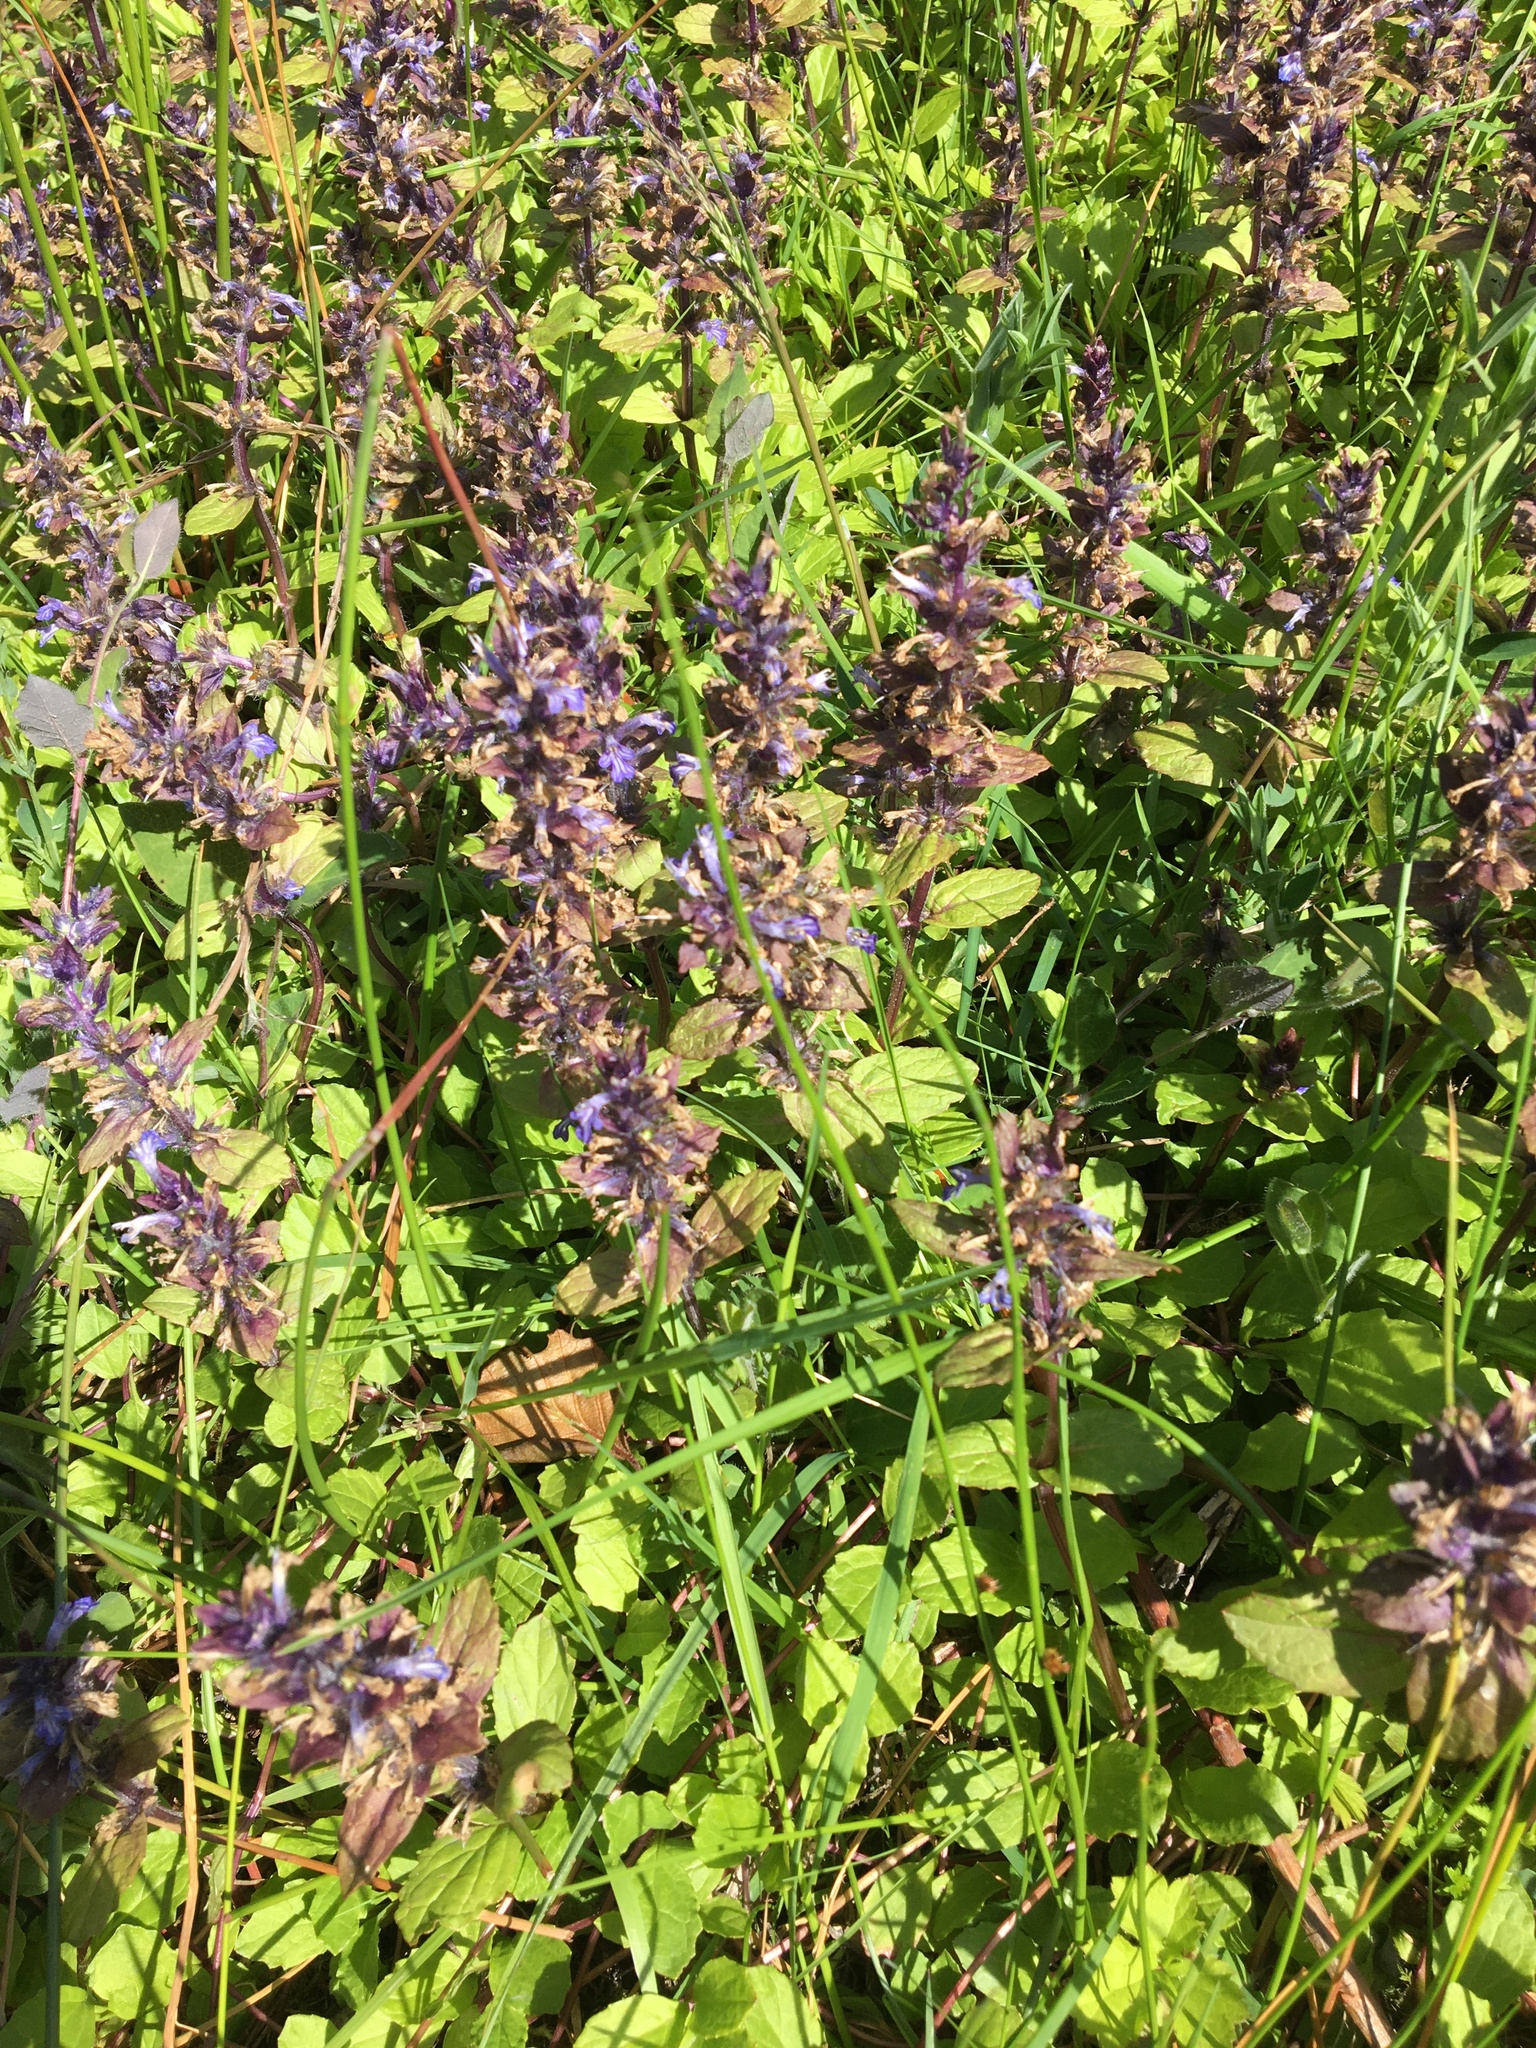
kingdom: Plantae
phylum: Tracheophyta
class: Magnoliopsida
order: Lamiales
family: Lamiaceae
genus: Ajuga
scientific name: Ajuga reptans
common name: Bugle
